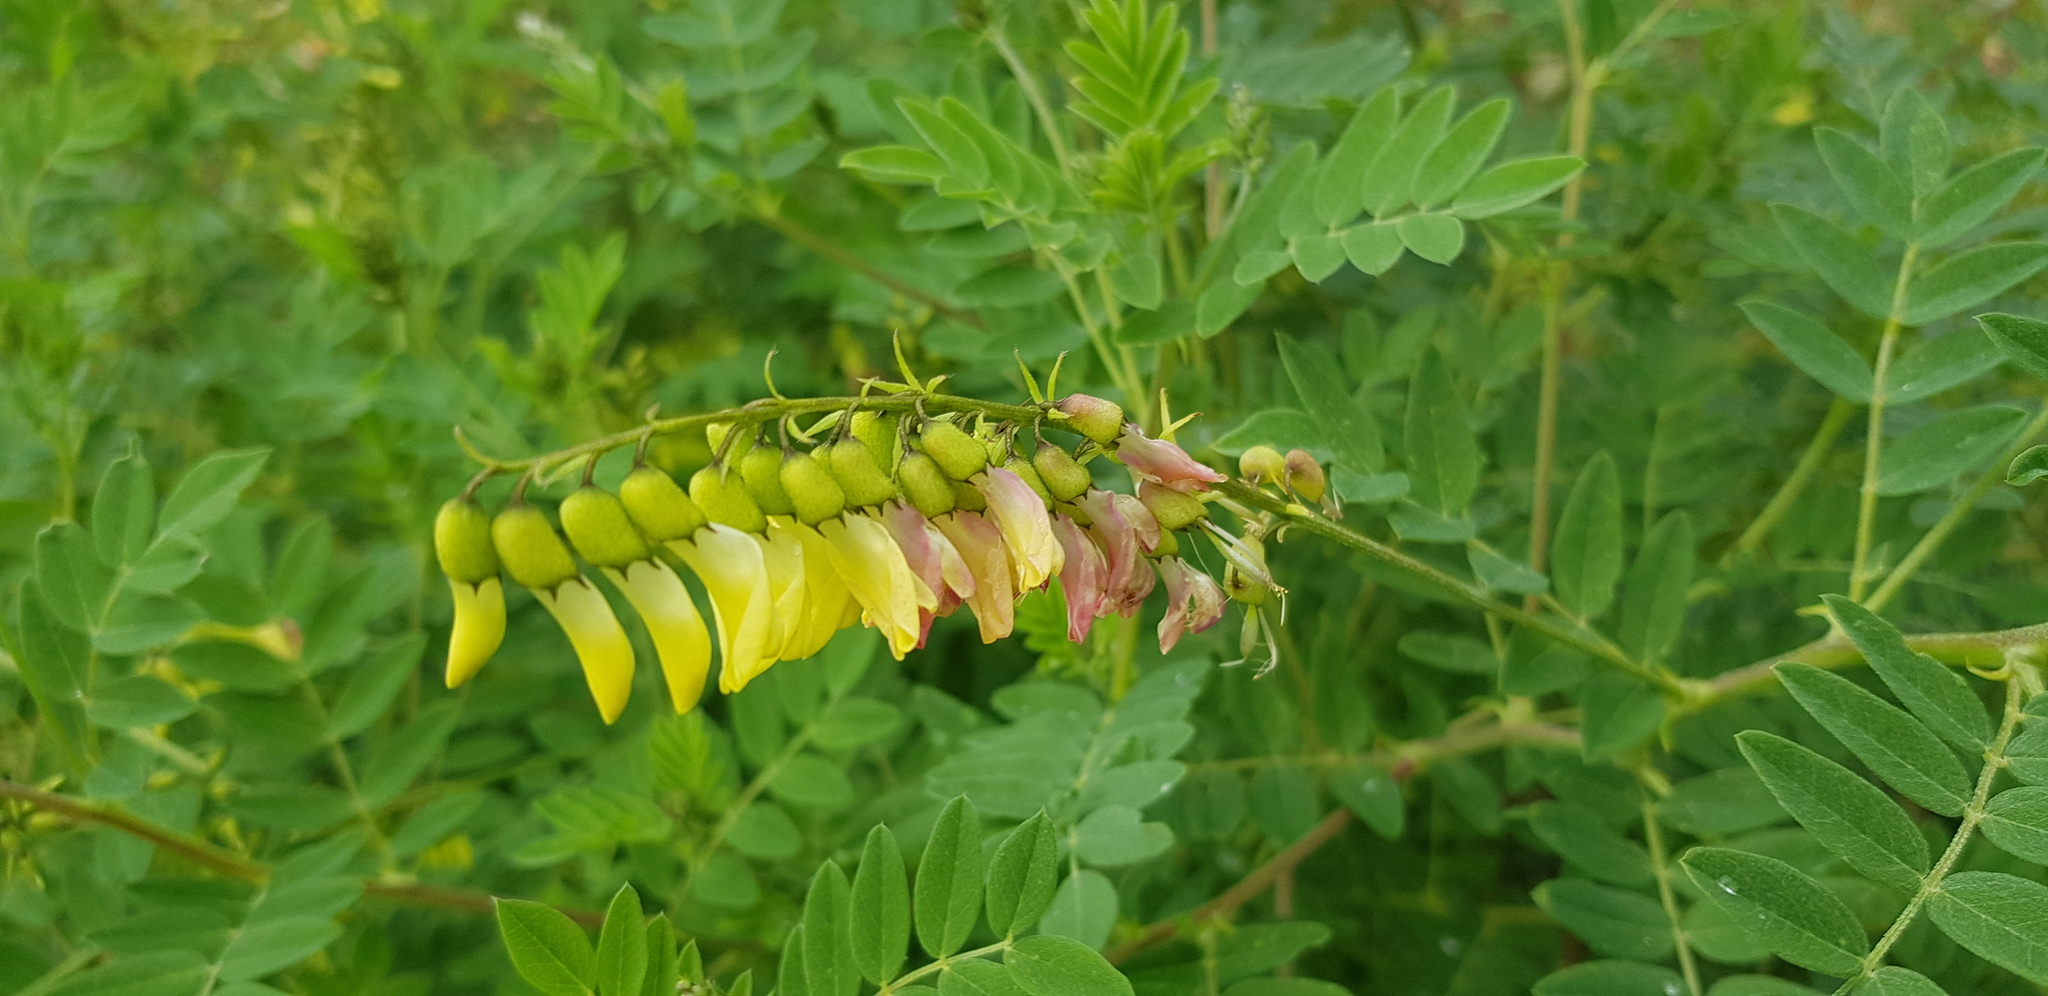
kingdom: Plantae
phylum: Tracheophyta
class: Magnoliopsida
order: Fabales
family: Fabaceae
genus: Astragalus
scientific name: Astragalus mongholicus
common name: Membranous milk-vetch
